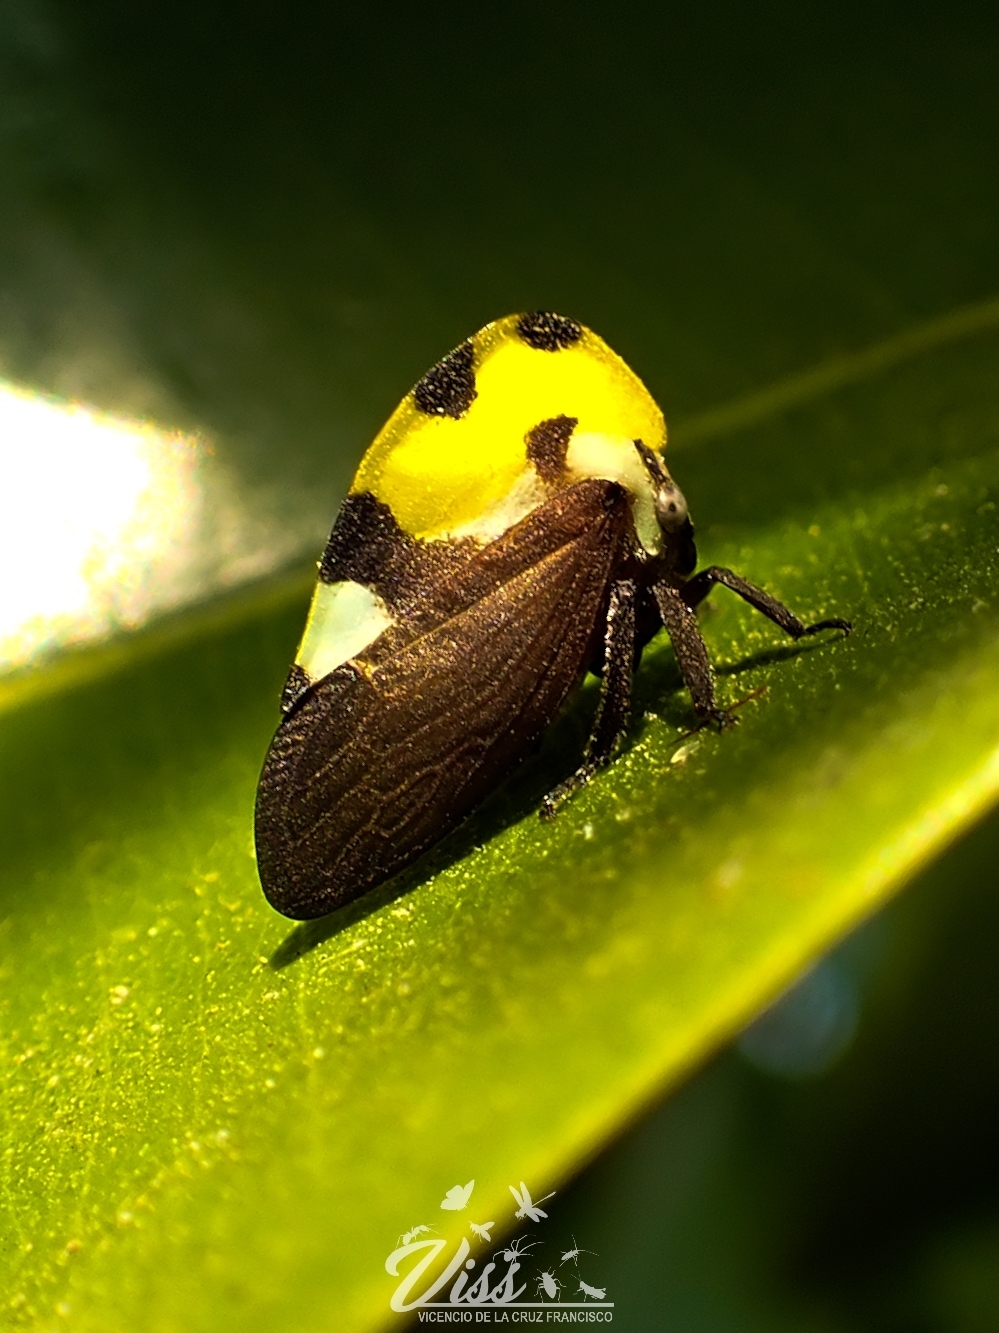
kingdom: Animalia
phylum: Arthropoda
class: Insecta
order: Hemiptera
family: Membracidae
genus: Membracis
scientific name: Membracis mexicana
